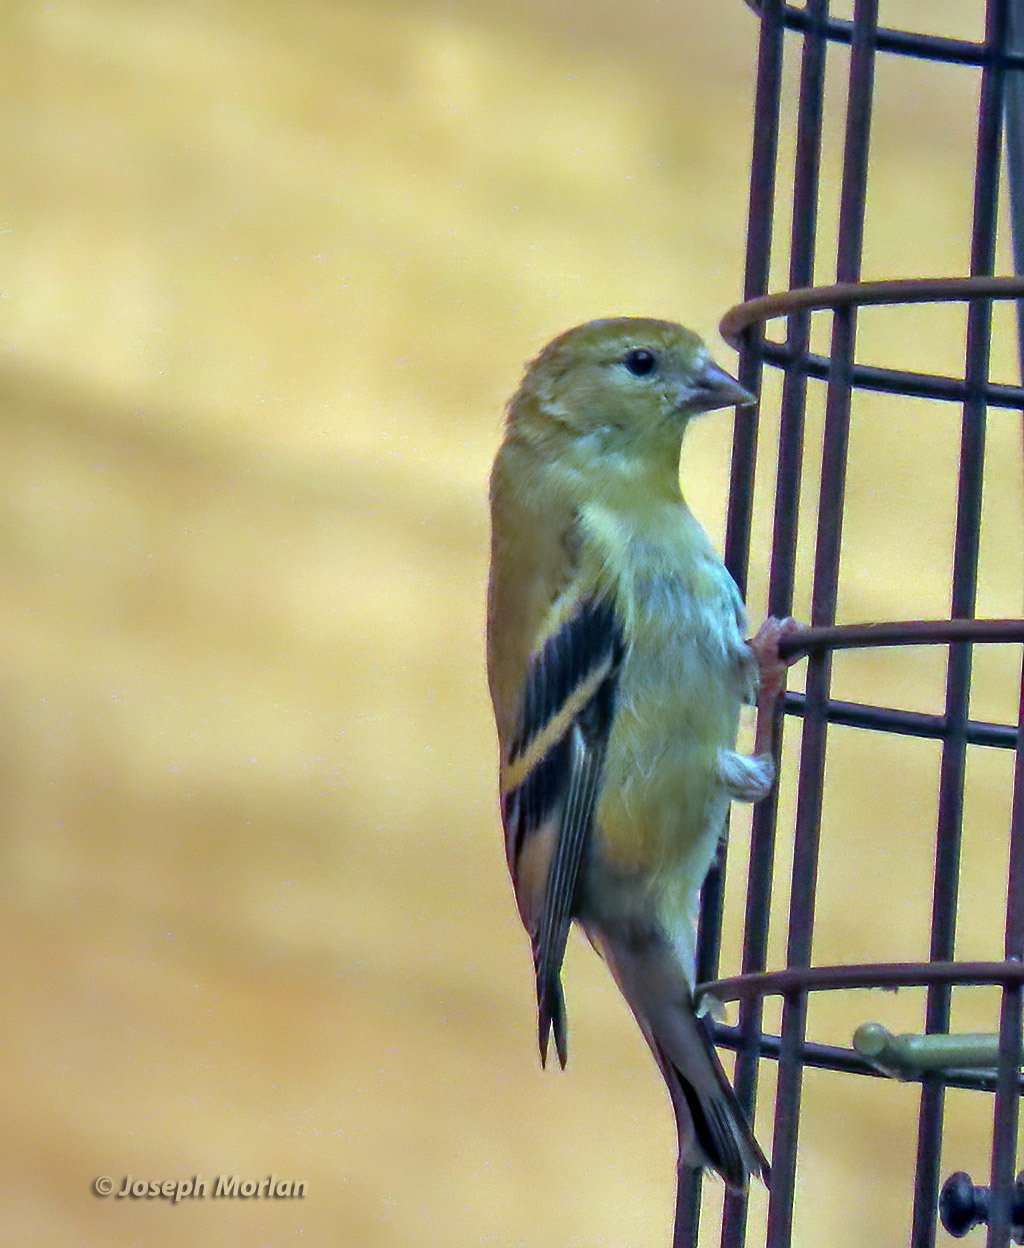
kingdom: Animalia
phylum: Chordata
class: Aves
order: Passeriformes
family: Fringillidae
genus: Spinus
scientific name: Spinus tristis
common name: American goldfinch
